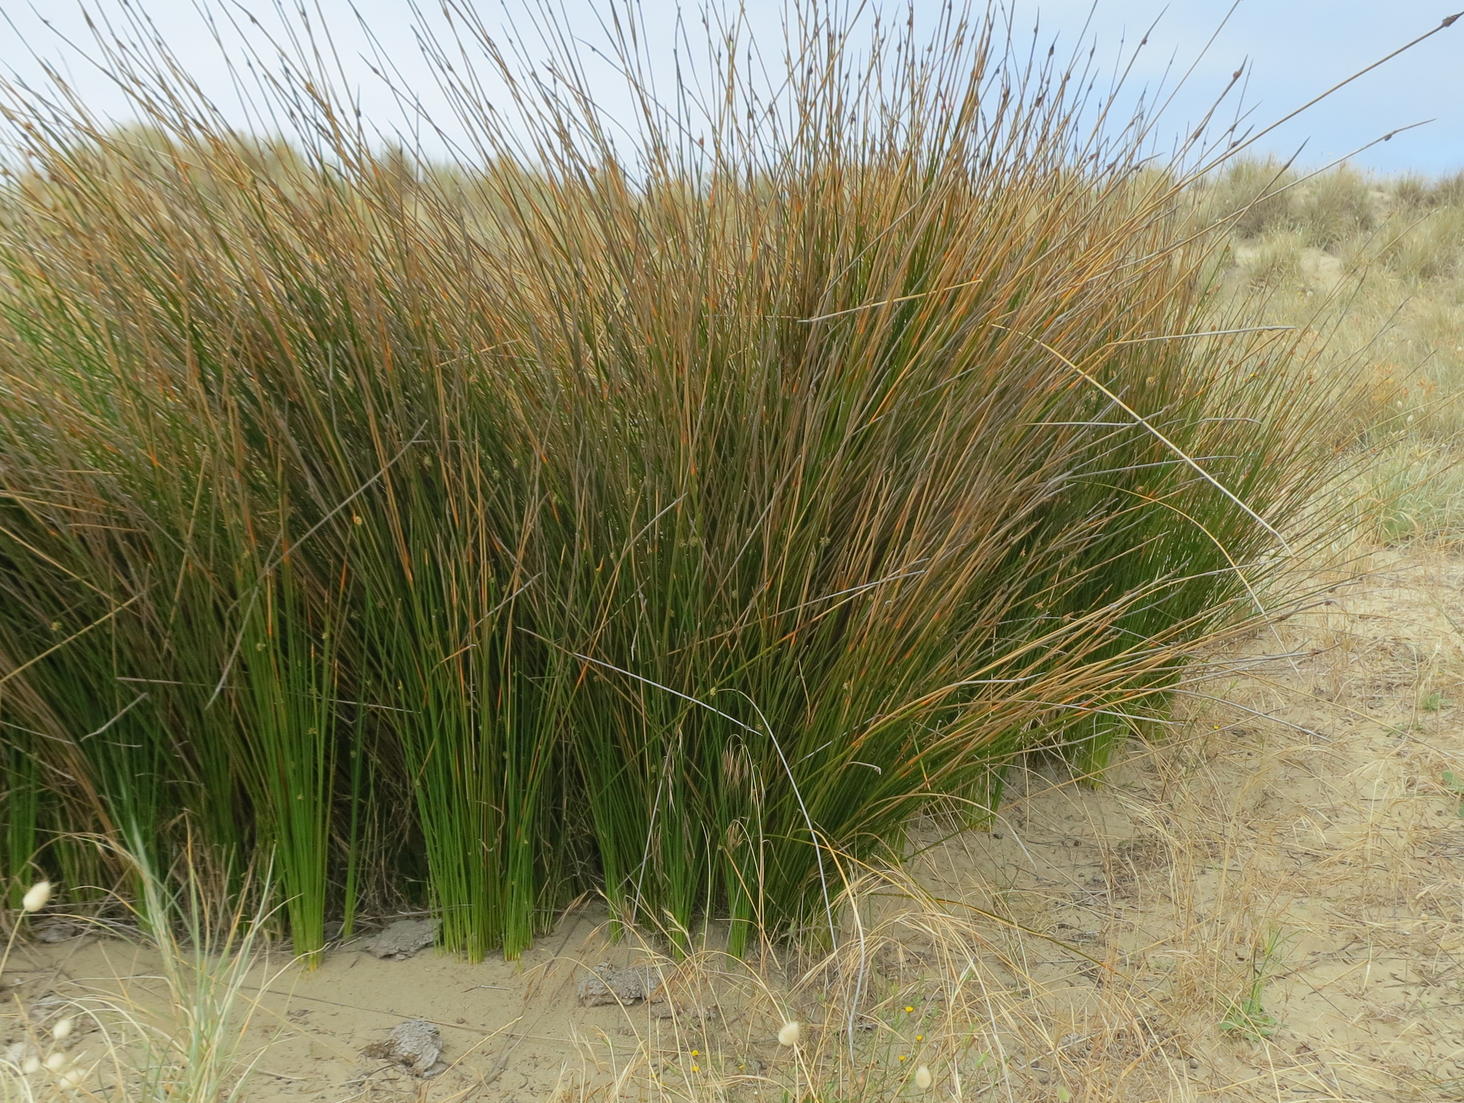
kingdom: Plantae
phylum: Tracheophyta
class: Liliopsida
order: Poales
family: Cyperaceae
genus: Ficinia
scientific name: Ficinia nodosa
